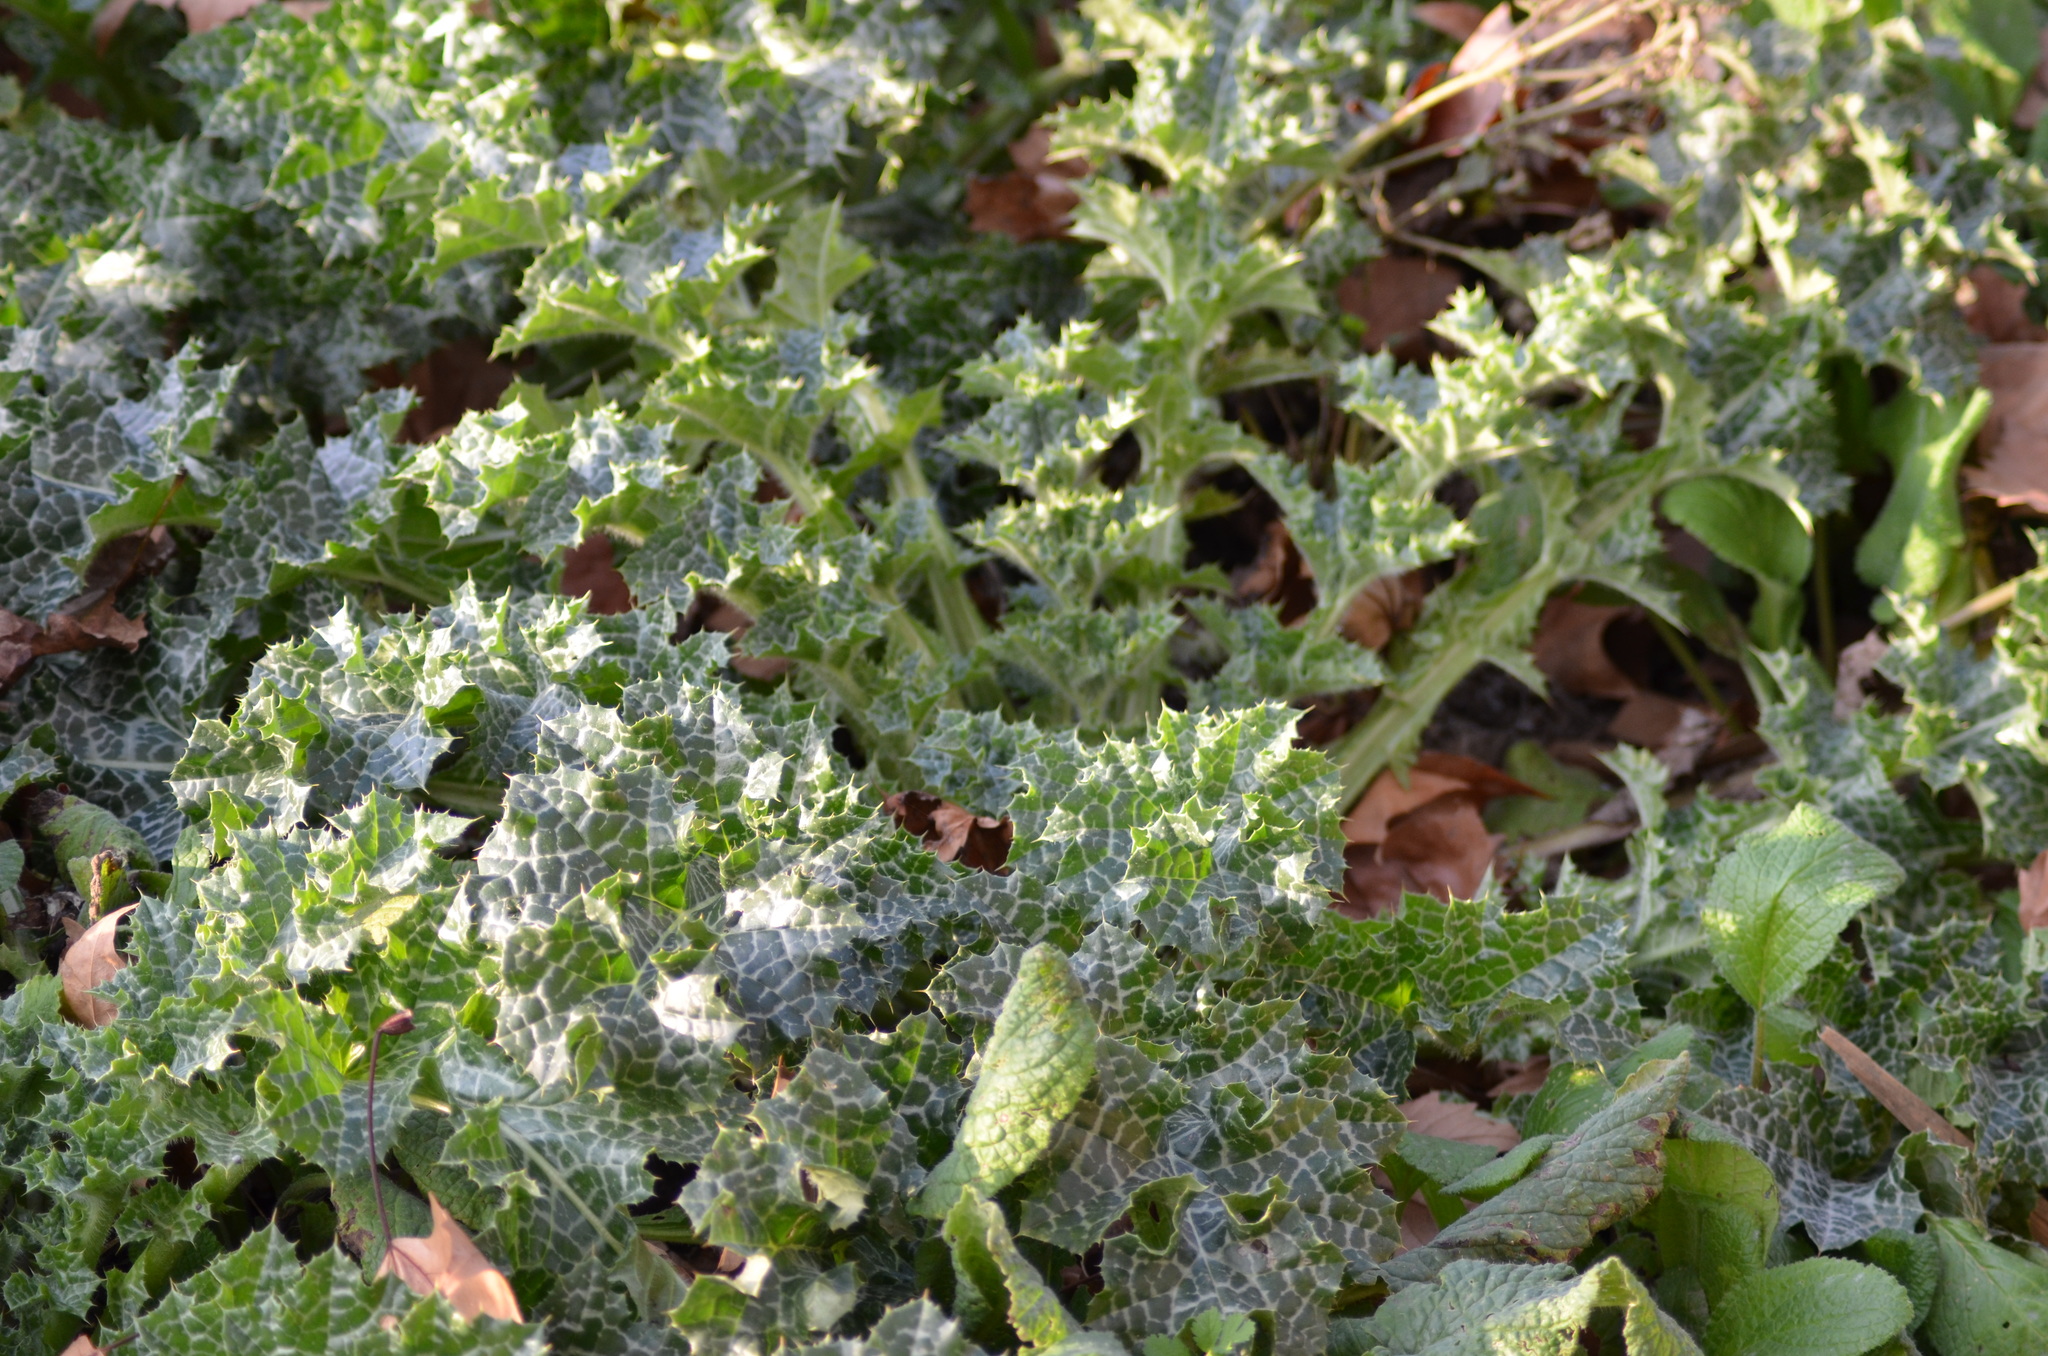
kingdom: Plantae
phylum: Tracheophyta
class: Magnoliopsida
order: Asterales
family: Asteraceae
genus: Silybum
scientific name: Silybum marianum
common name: Milk thistle
